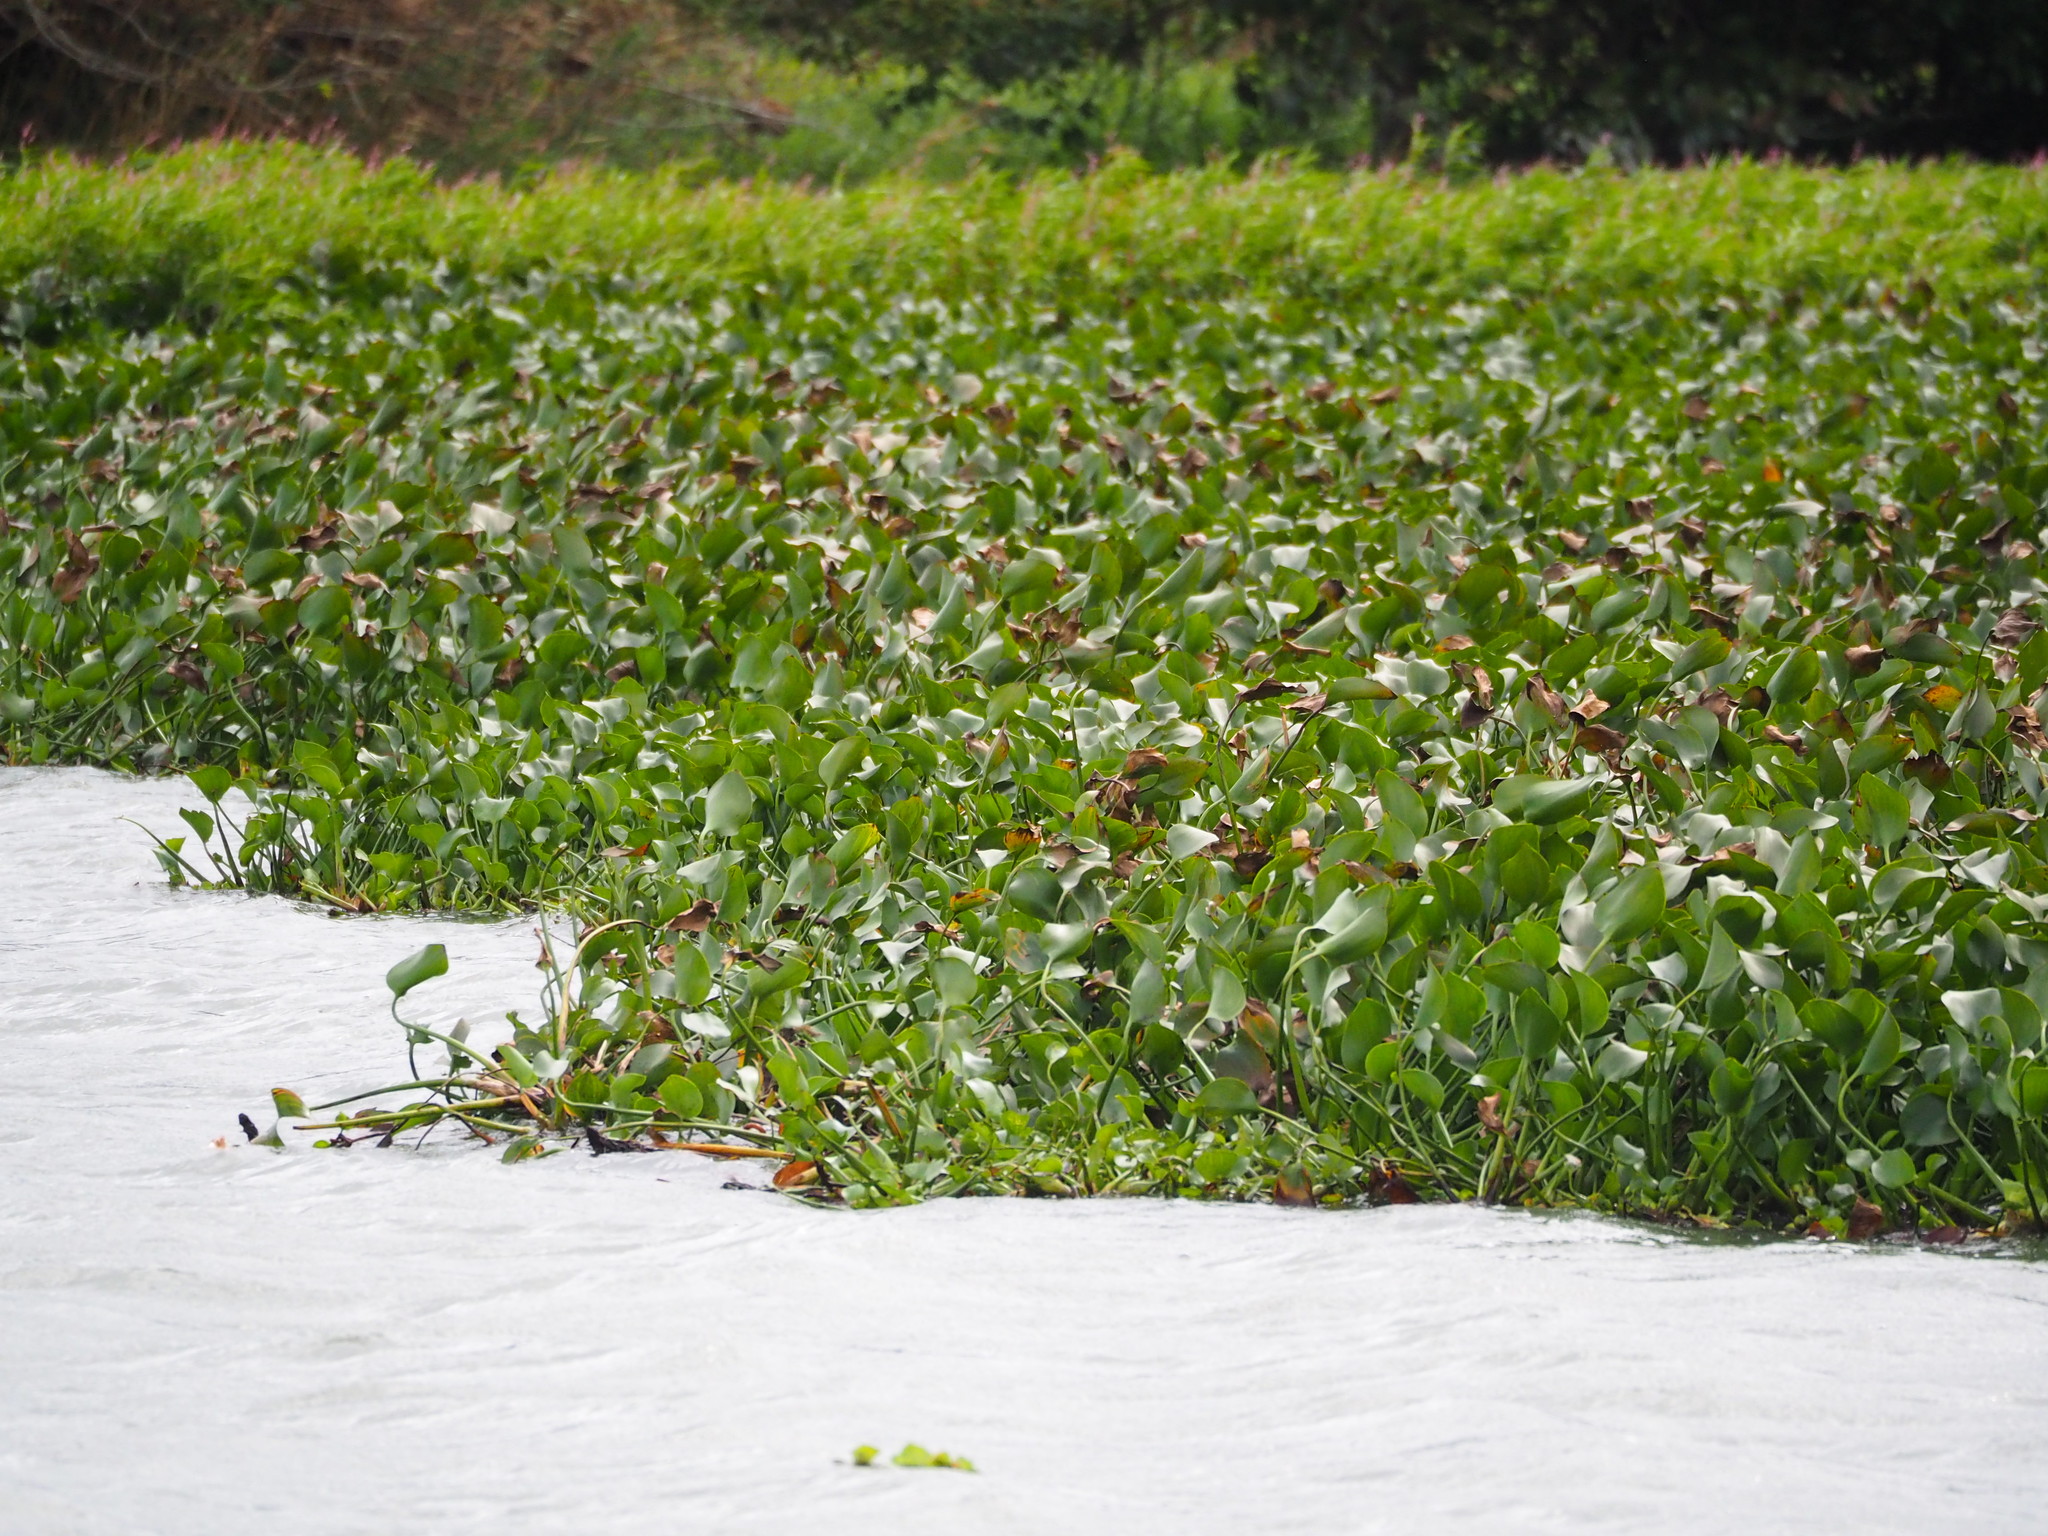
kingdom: Plantae
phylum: Tracheophyta
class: Liliopsida
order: Commelinales
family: Pontederiaceae
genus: Pontederia
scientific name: Pontederia crassipes
